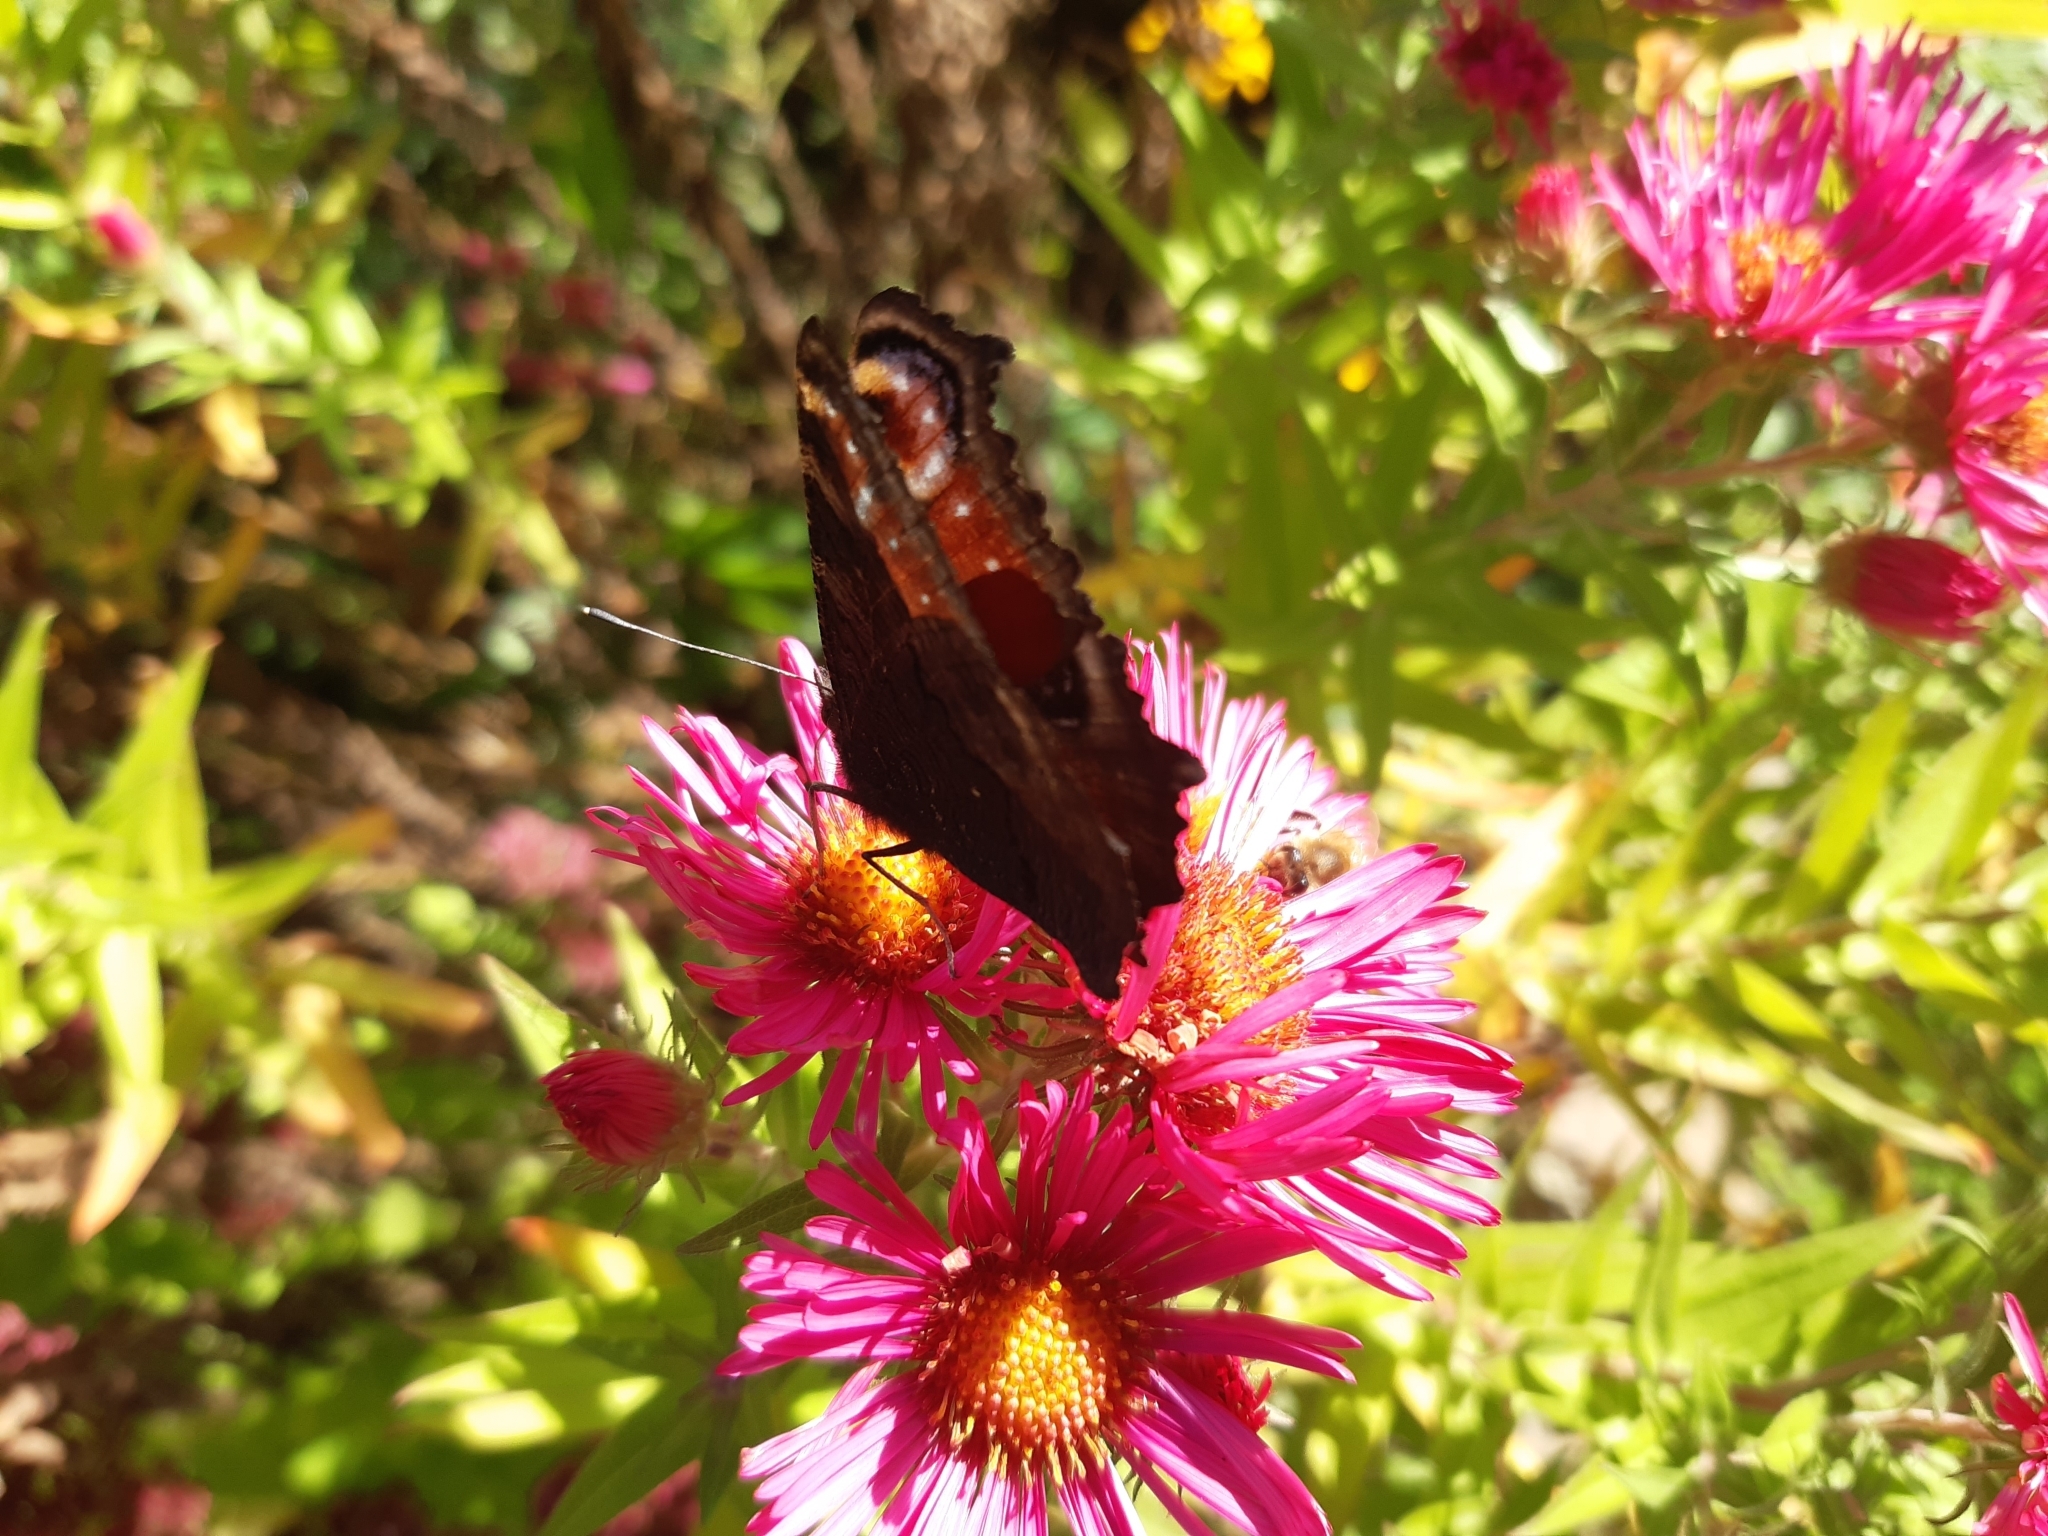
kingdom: Animalia
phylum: Arthropoda
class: Insecta
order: Lepidoptera
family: Nymphalidae
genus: Aglais
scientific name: Aglais io
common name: Peacock
